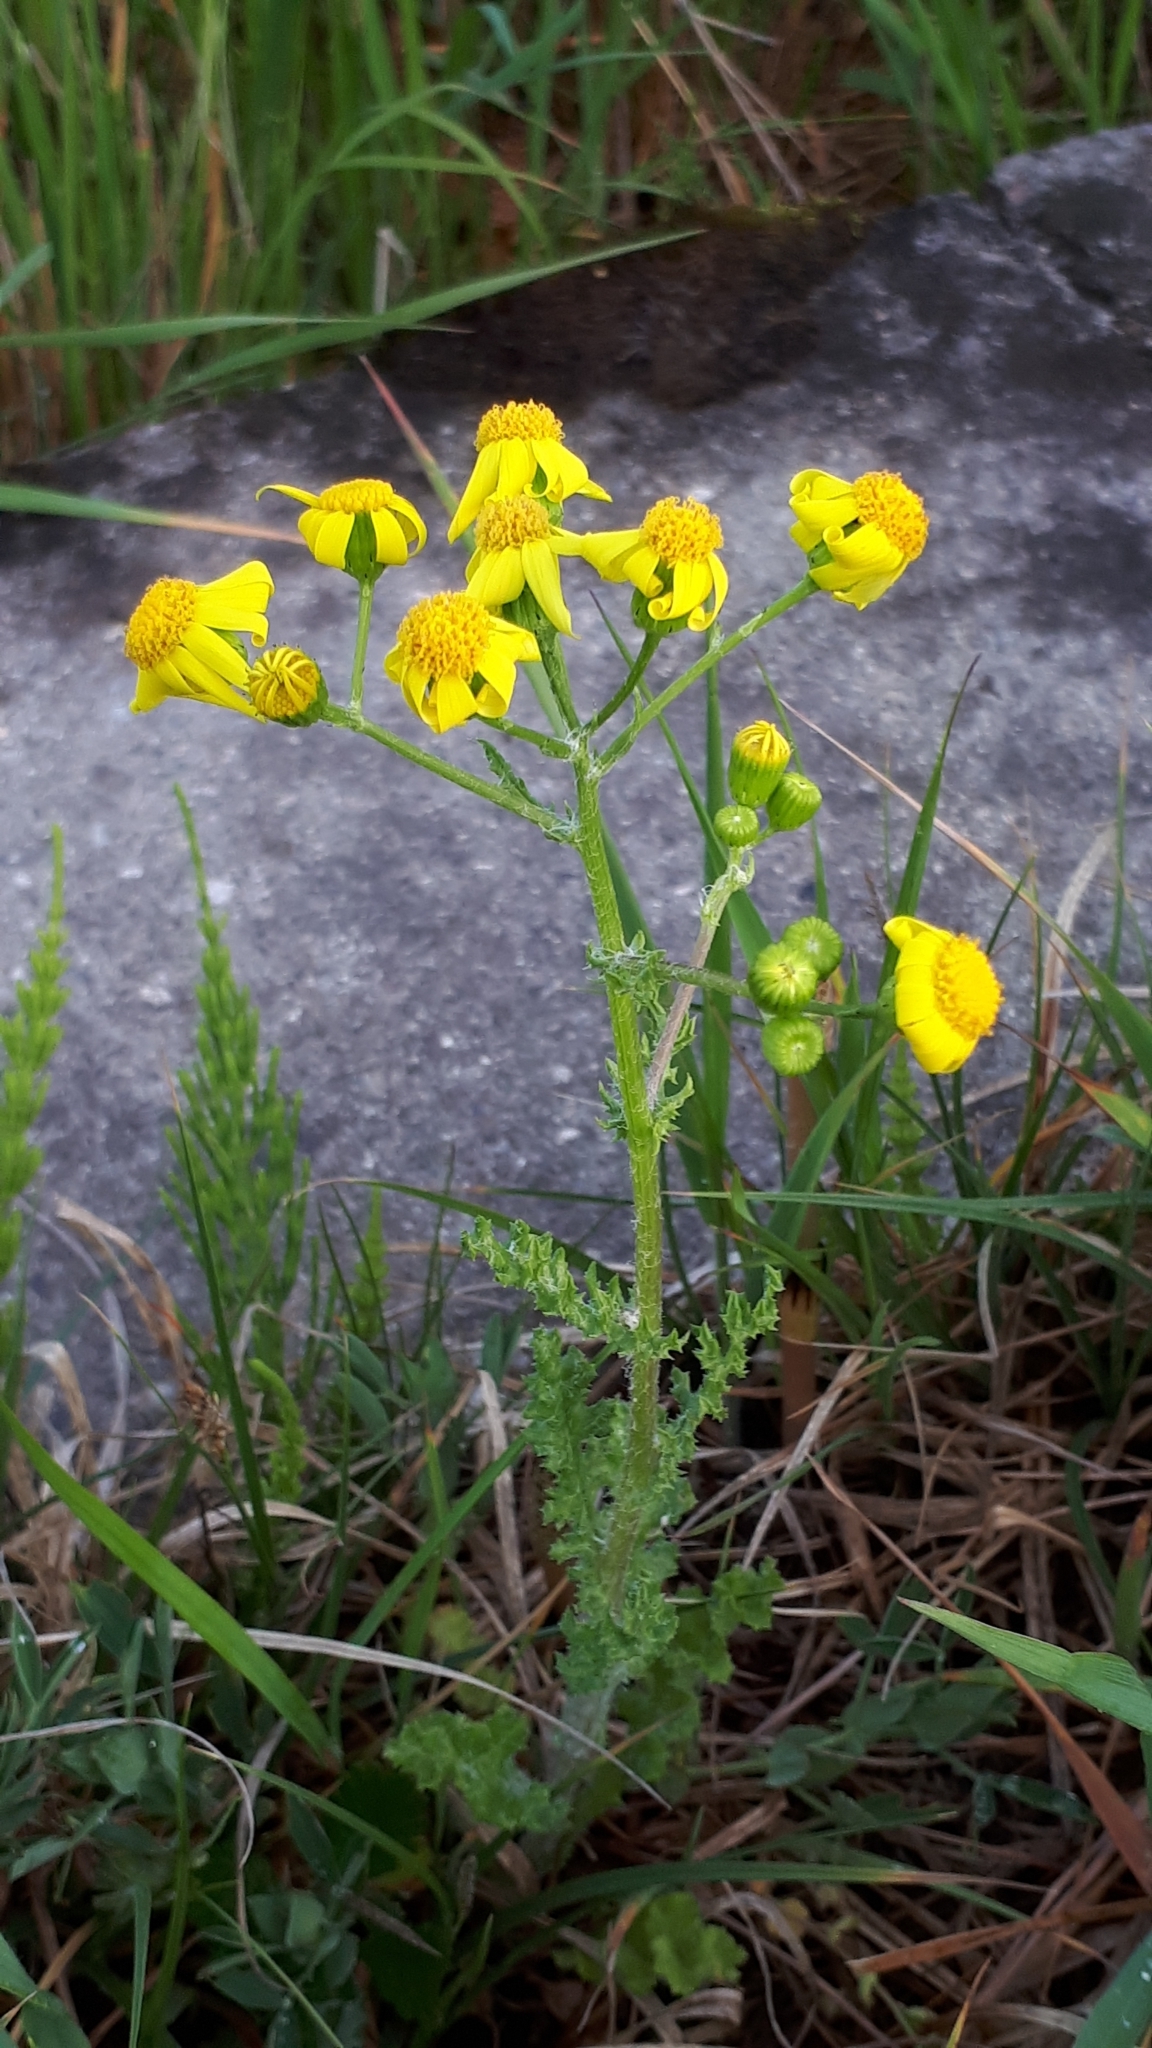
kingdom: Plantae
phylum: Tracheophyta
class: Magnoliopsida
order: Asterales
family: Asteraceae
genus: Senecio
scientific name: Senecio vernalis
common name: Eastern groundsel
